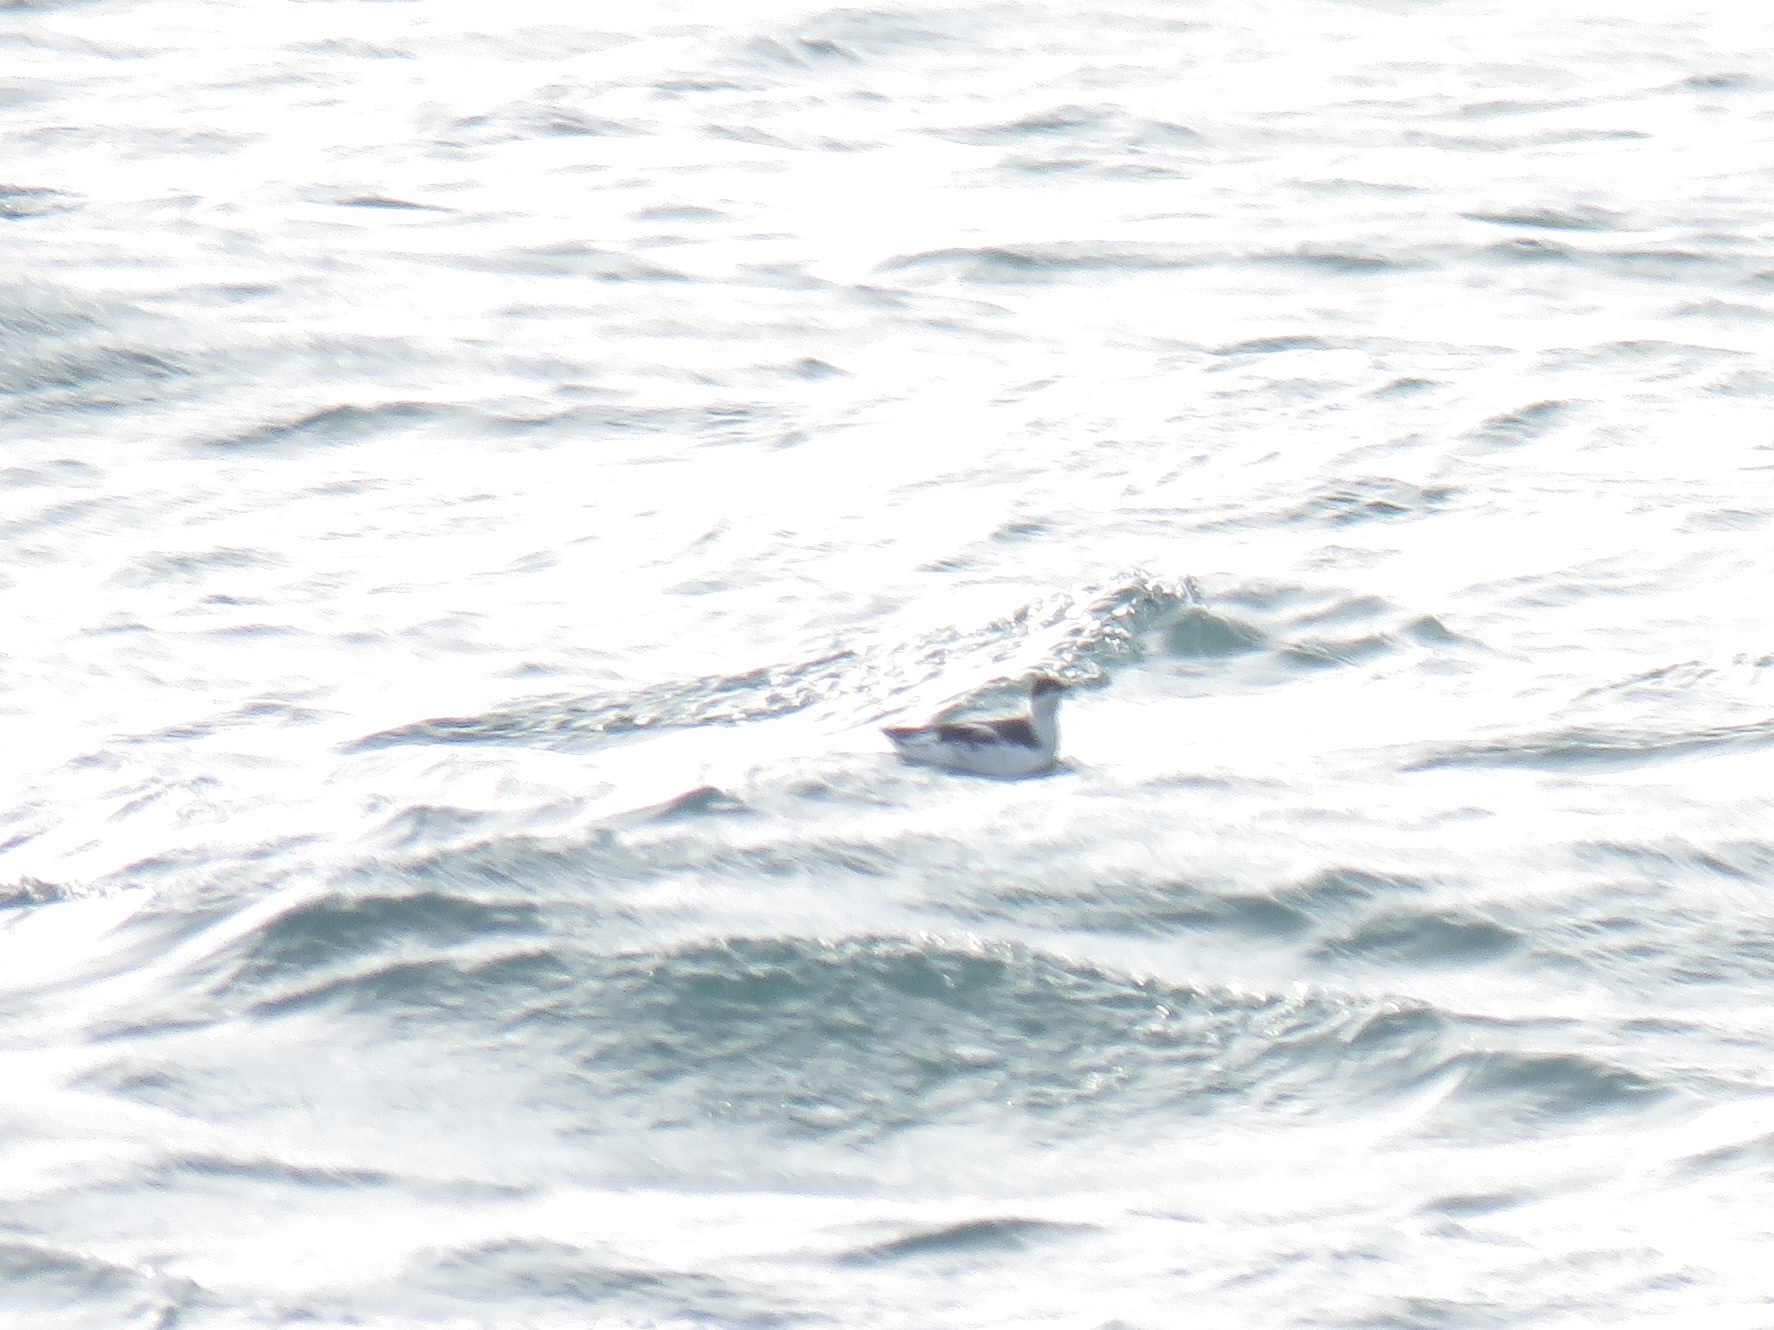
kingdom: Animalia
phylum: Chordata
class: Aves
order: Charadriiformes
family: Alcidae
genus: Brachyramphus
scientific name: Brachyramphus marmoratus
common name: Marbled murrelet
